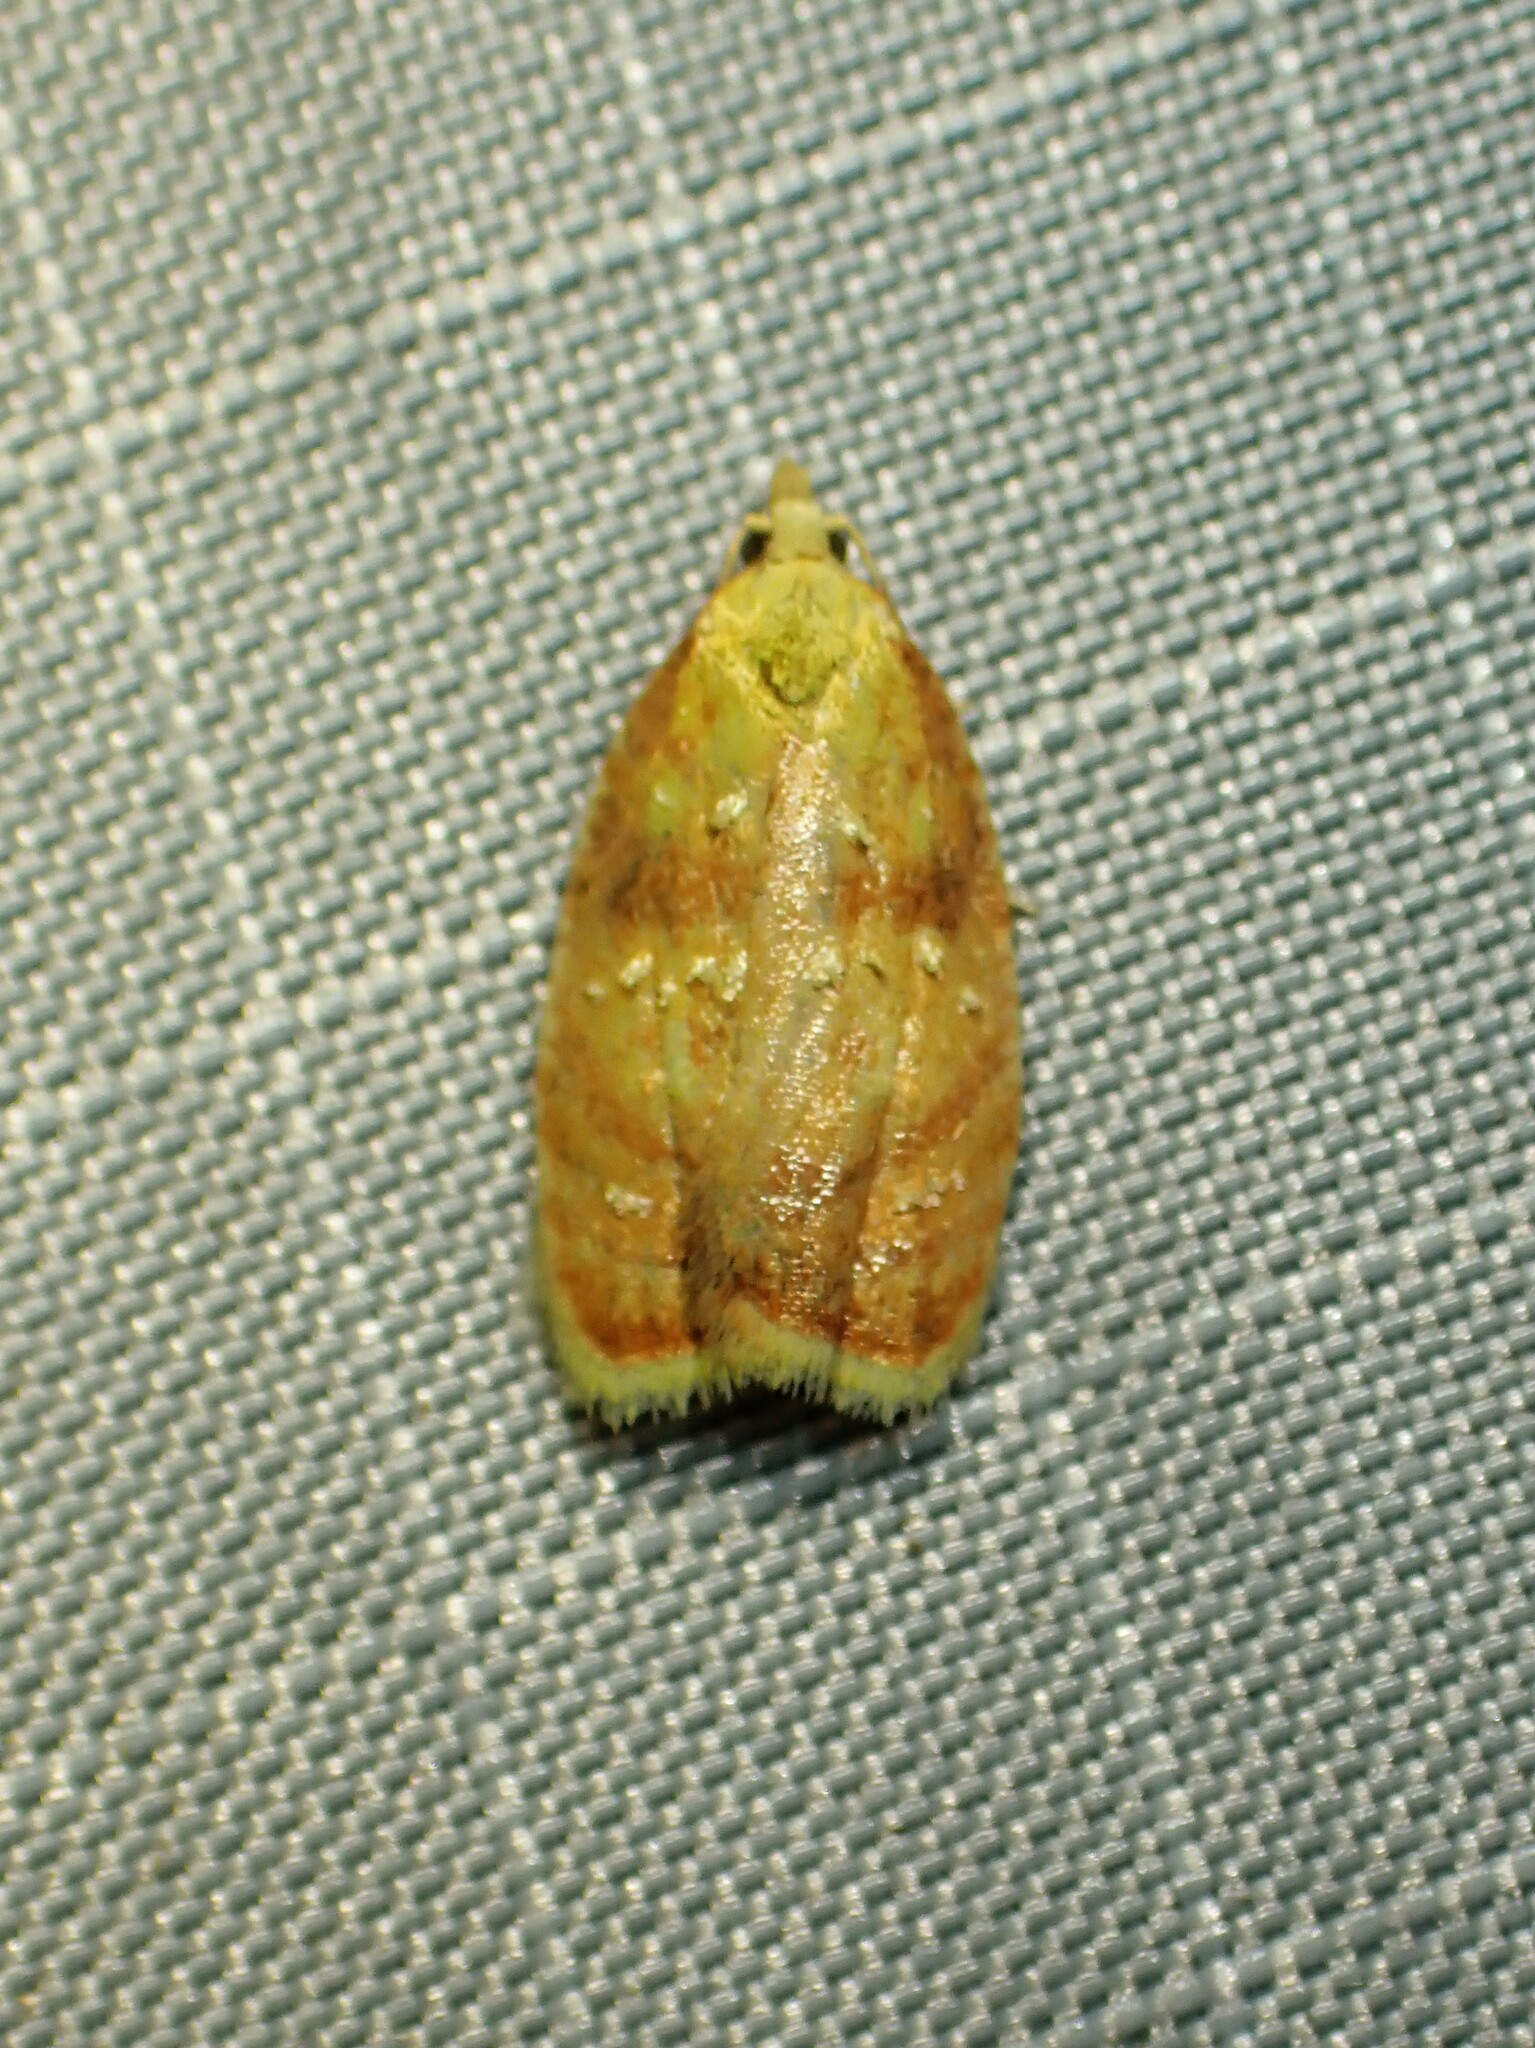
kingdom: Animalia
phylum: Arthropoda
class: Insecta
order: Lepidoptera
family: Tortricidae
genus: Acleris
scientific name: Acleris curvalana
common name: Blueberry leaftier moth
